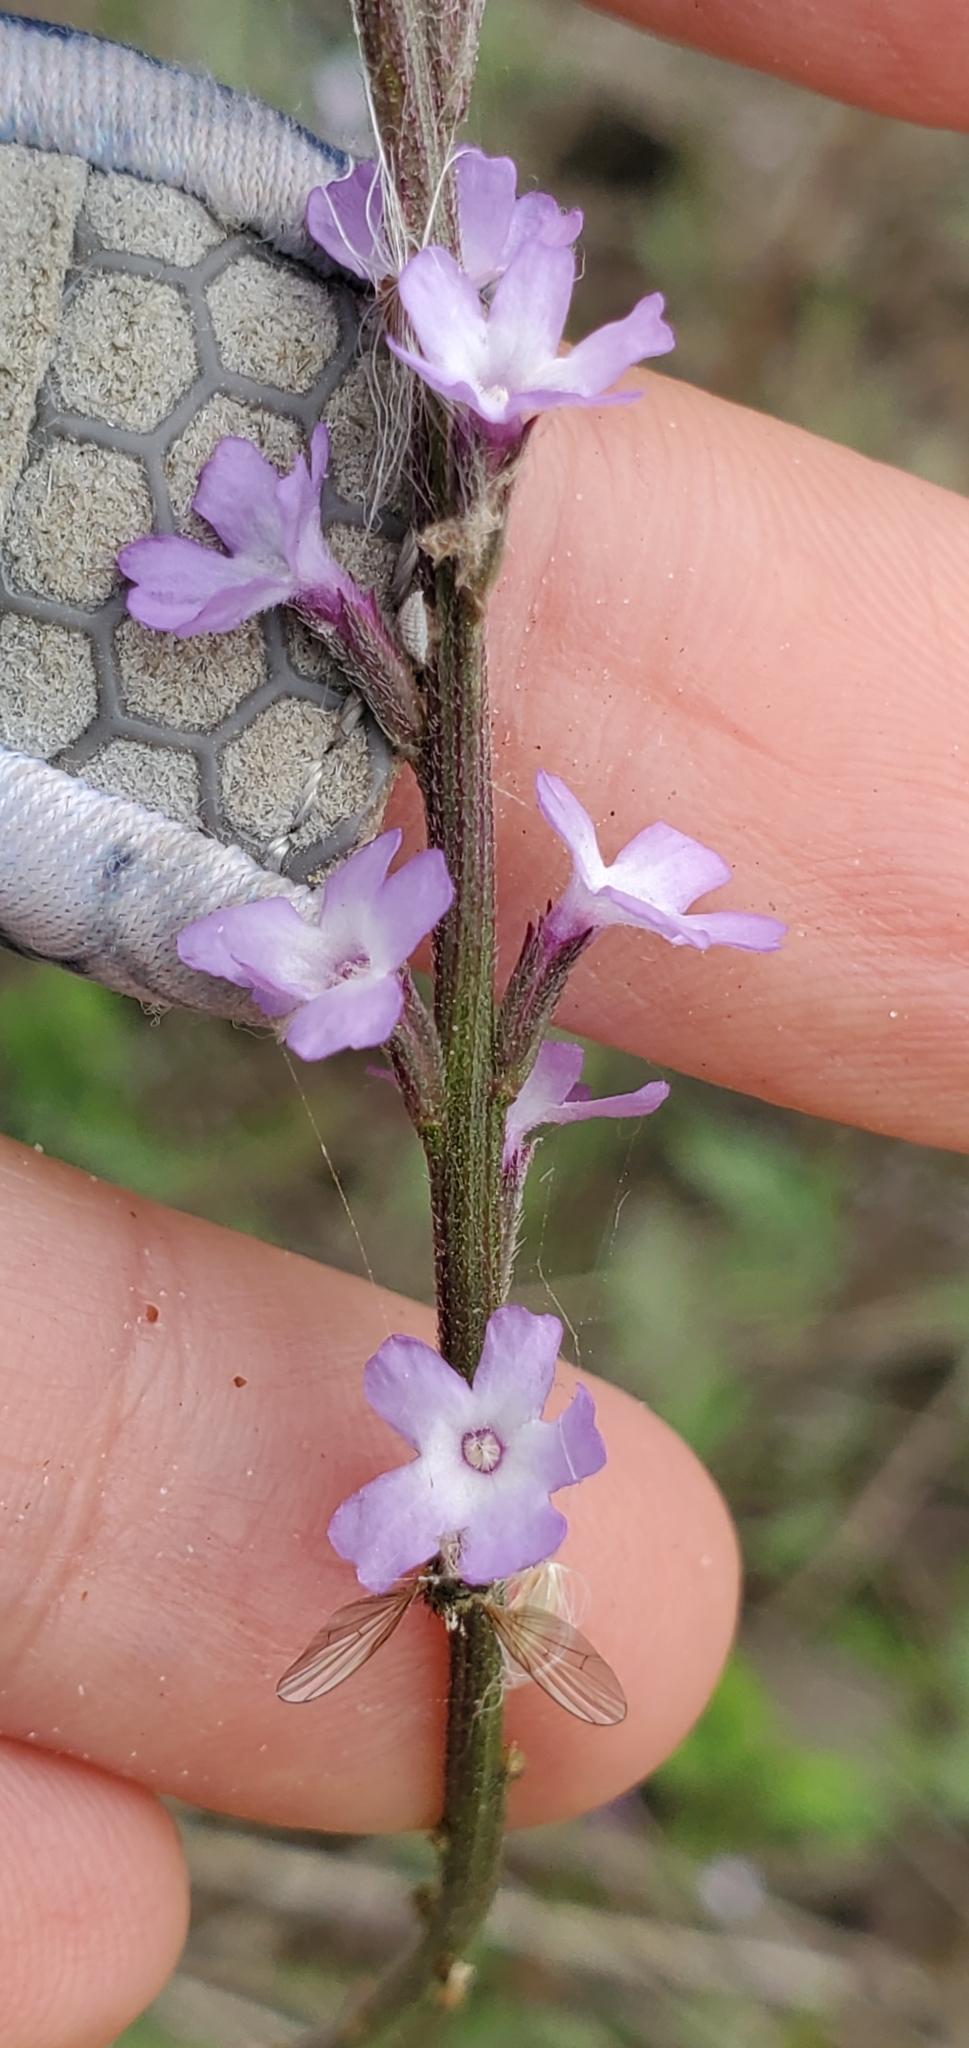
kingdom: Plantae
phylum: Tracheophyta
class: Magnoliopsida
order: Lamiales
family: Verbenaceae
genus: Verbena
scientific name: Verbena menthifolia
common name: Mint-leaf vervain
